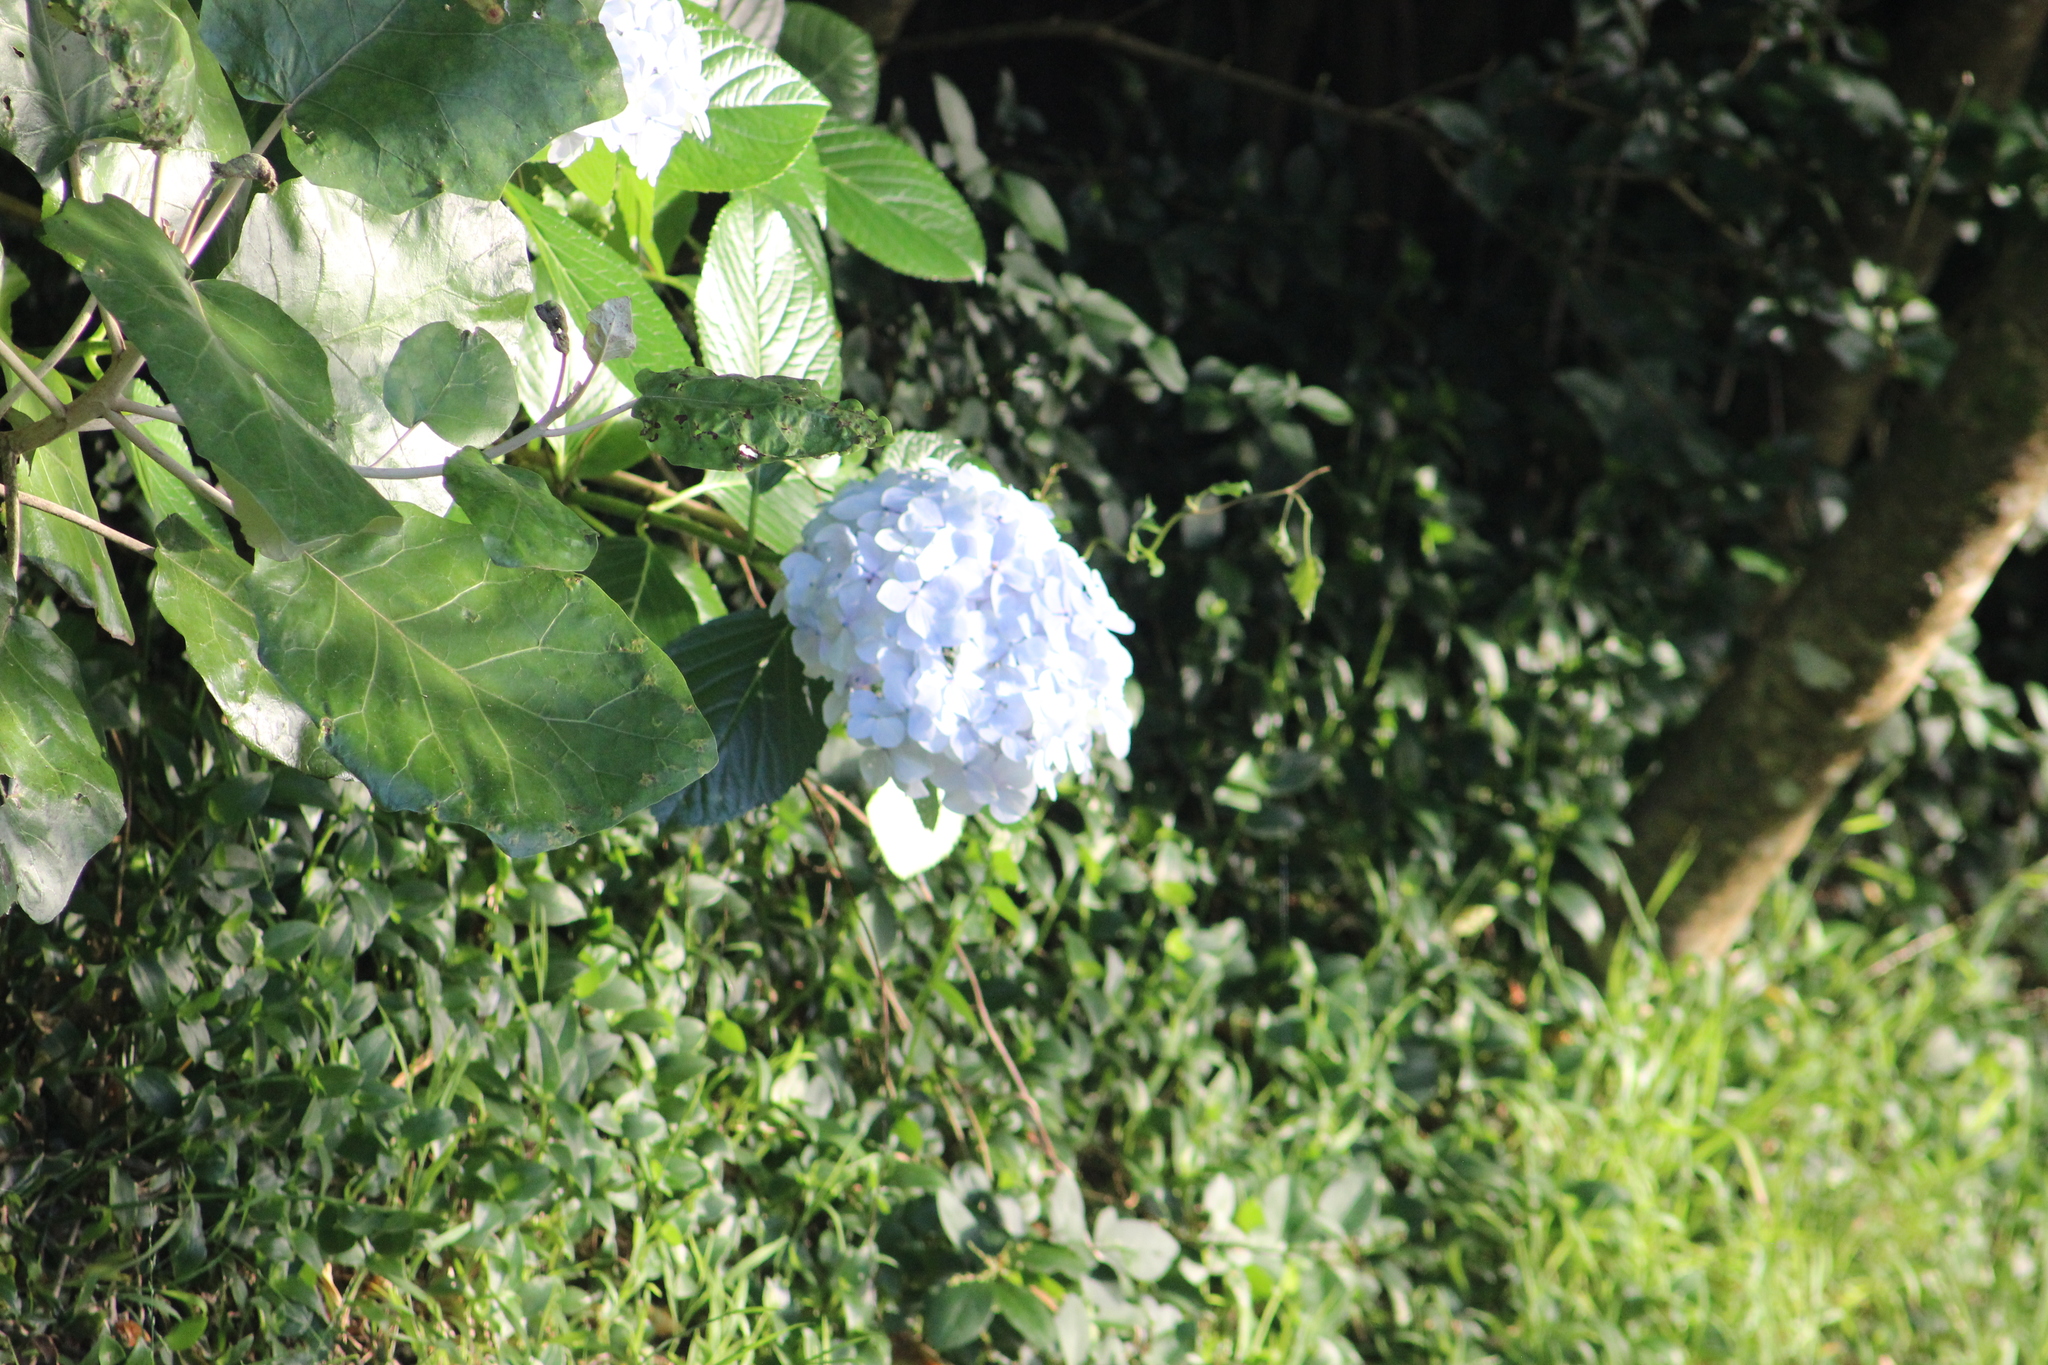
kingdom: Plantae
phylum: Tracheophyta
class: Magnoliopsida
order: Cornales
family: Hydrangeaceae
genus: Hydrangea
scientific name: Hydrangea macrophylla
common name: Hydrangea
